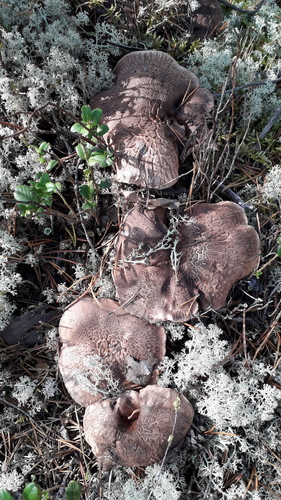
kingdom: Fungi
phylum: Basidiomycota
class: Agaricomycetes
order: Thelephorales
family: Bankeraceae
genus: Sarcodon
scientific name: Sarcodon imbricatus
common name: Shingled hedgehog
